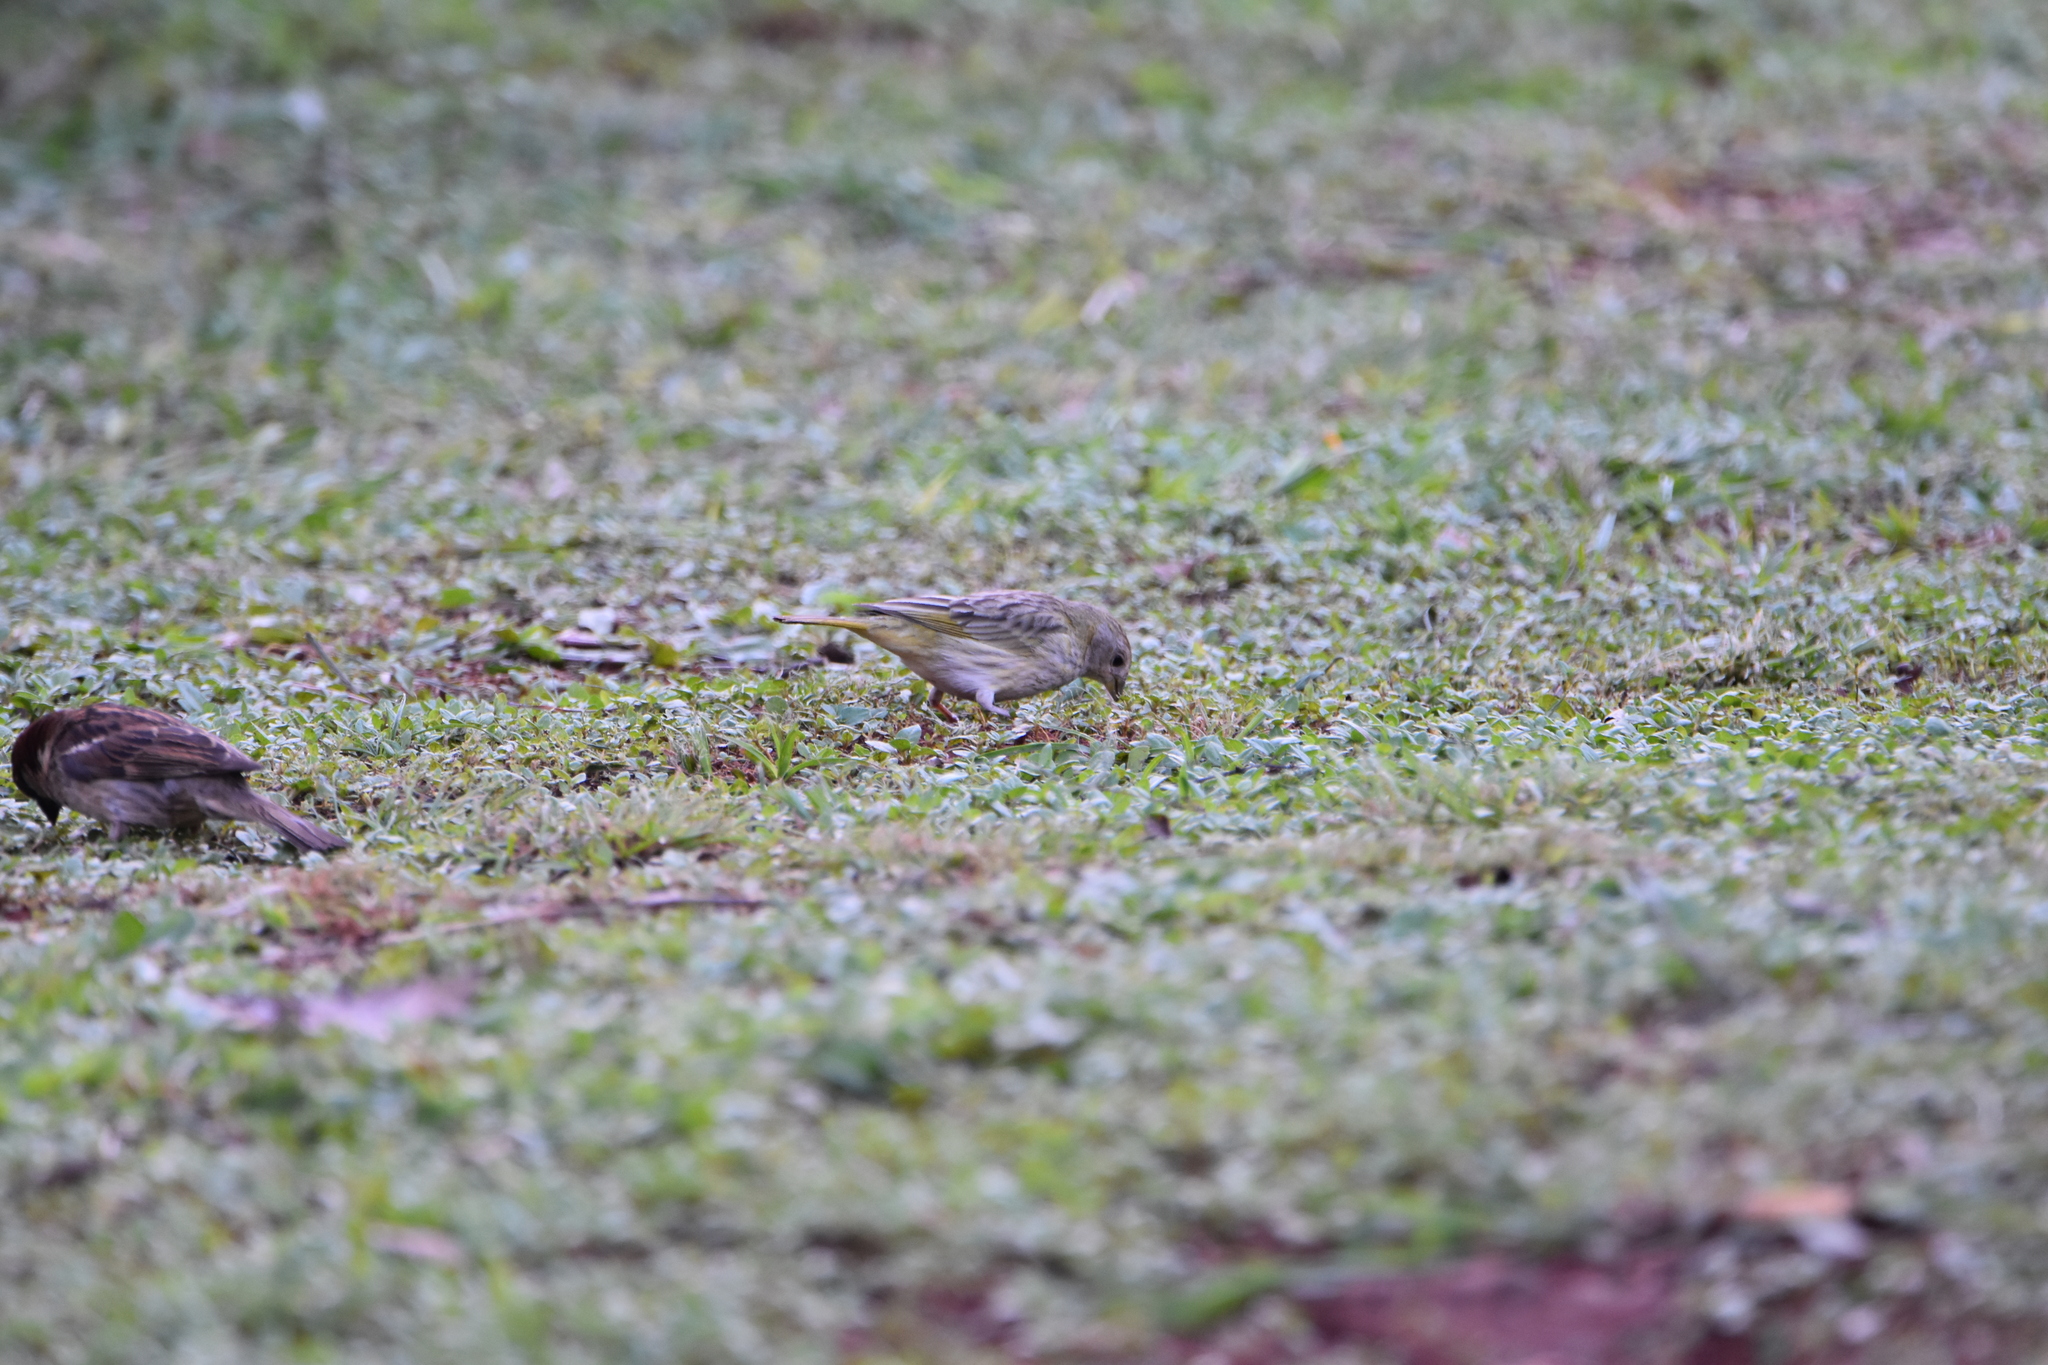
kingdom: Animalia
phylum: Chordata
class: Aves
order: Passeriformes
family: Thraupidae
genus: Sicalis
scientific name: Sicalis flaveola
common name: Saffron finch
